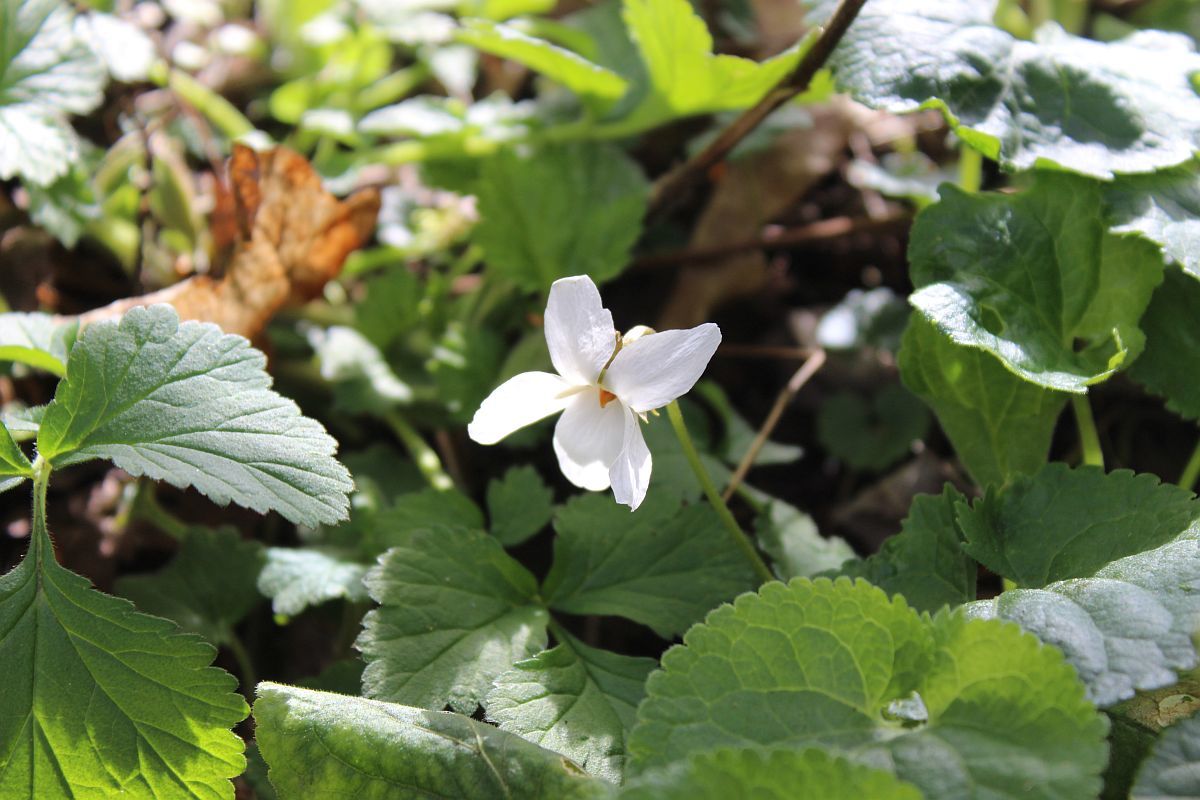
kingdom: Plantae
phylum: Tracheophyta
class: Magnoliopsida
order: Malpighiales
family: Violaceae
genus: Viola
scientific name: Viola odorata
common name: Sweet violet
